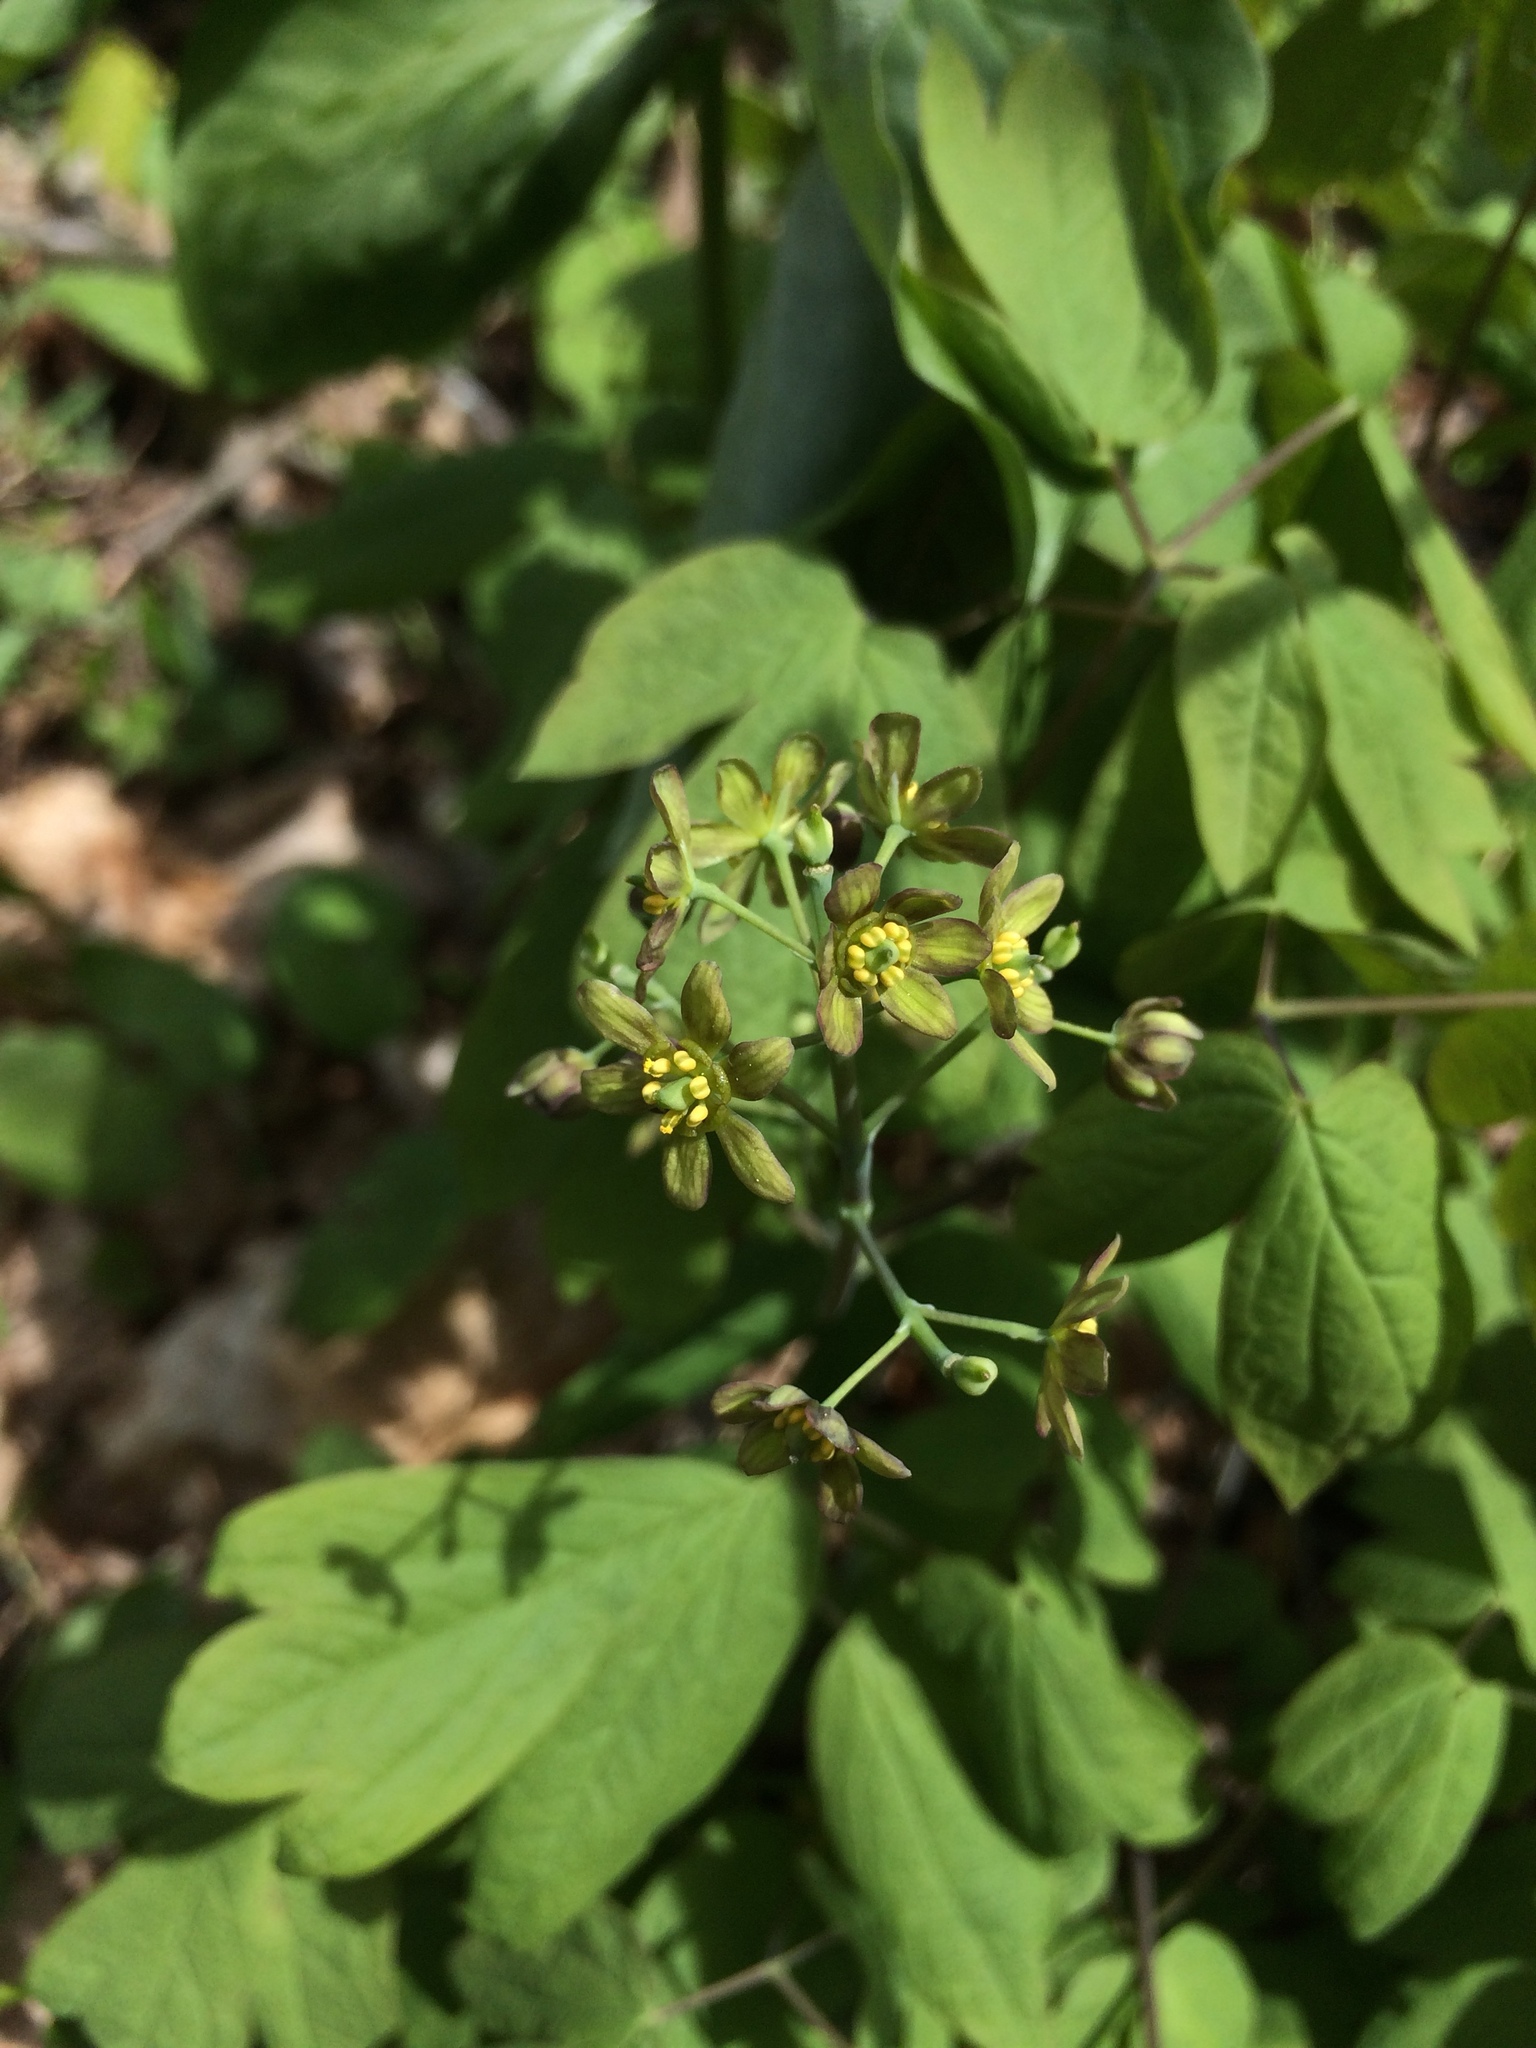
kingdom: Plantae
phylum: Tracheophyta
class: Magnoliopsida
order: Ranunculales
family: Berberidaceae
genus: Caulophyllum
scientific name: Caulophyllum thalictroides
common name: Blue cohosh
